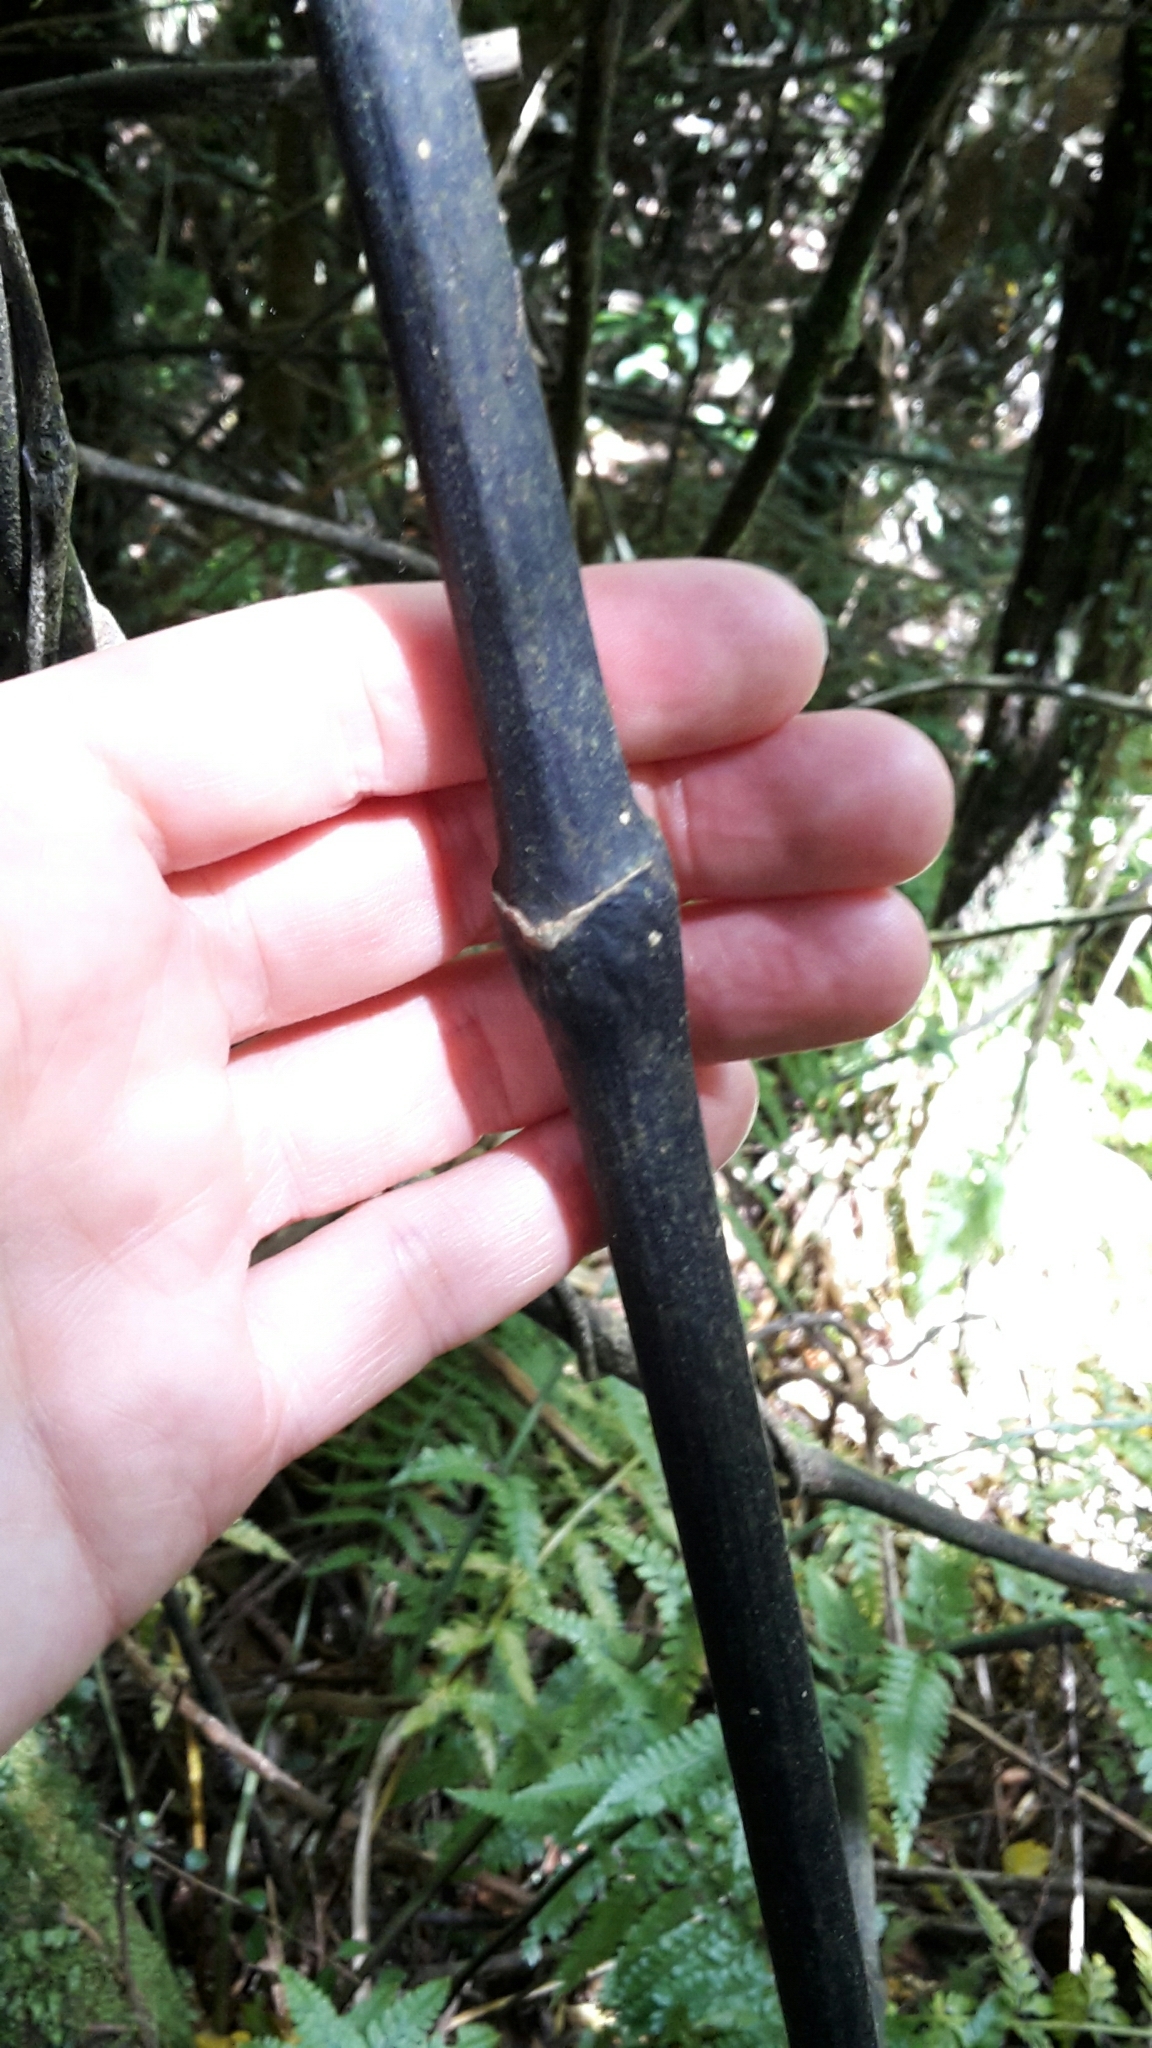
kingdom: Plantae
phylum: Tracheophyta
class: Liliopsida
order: Liliales
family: Ripogonaceae
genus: Ripogonum
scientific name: Ripogonum scandens
